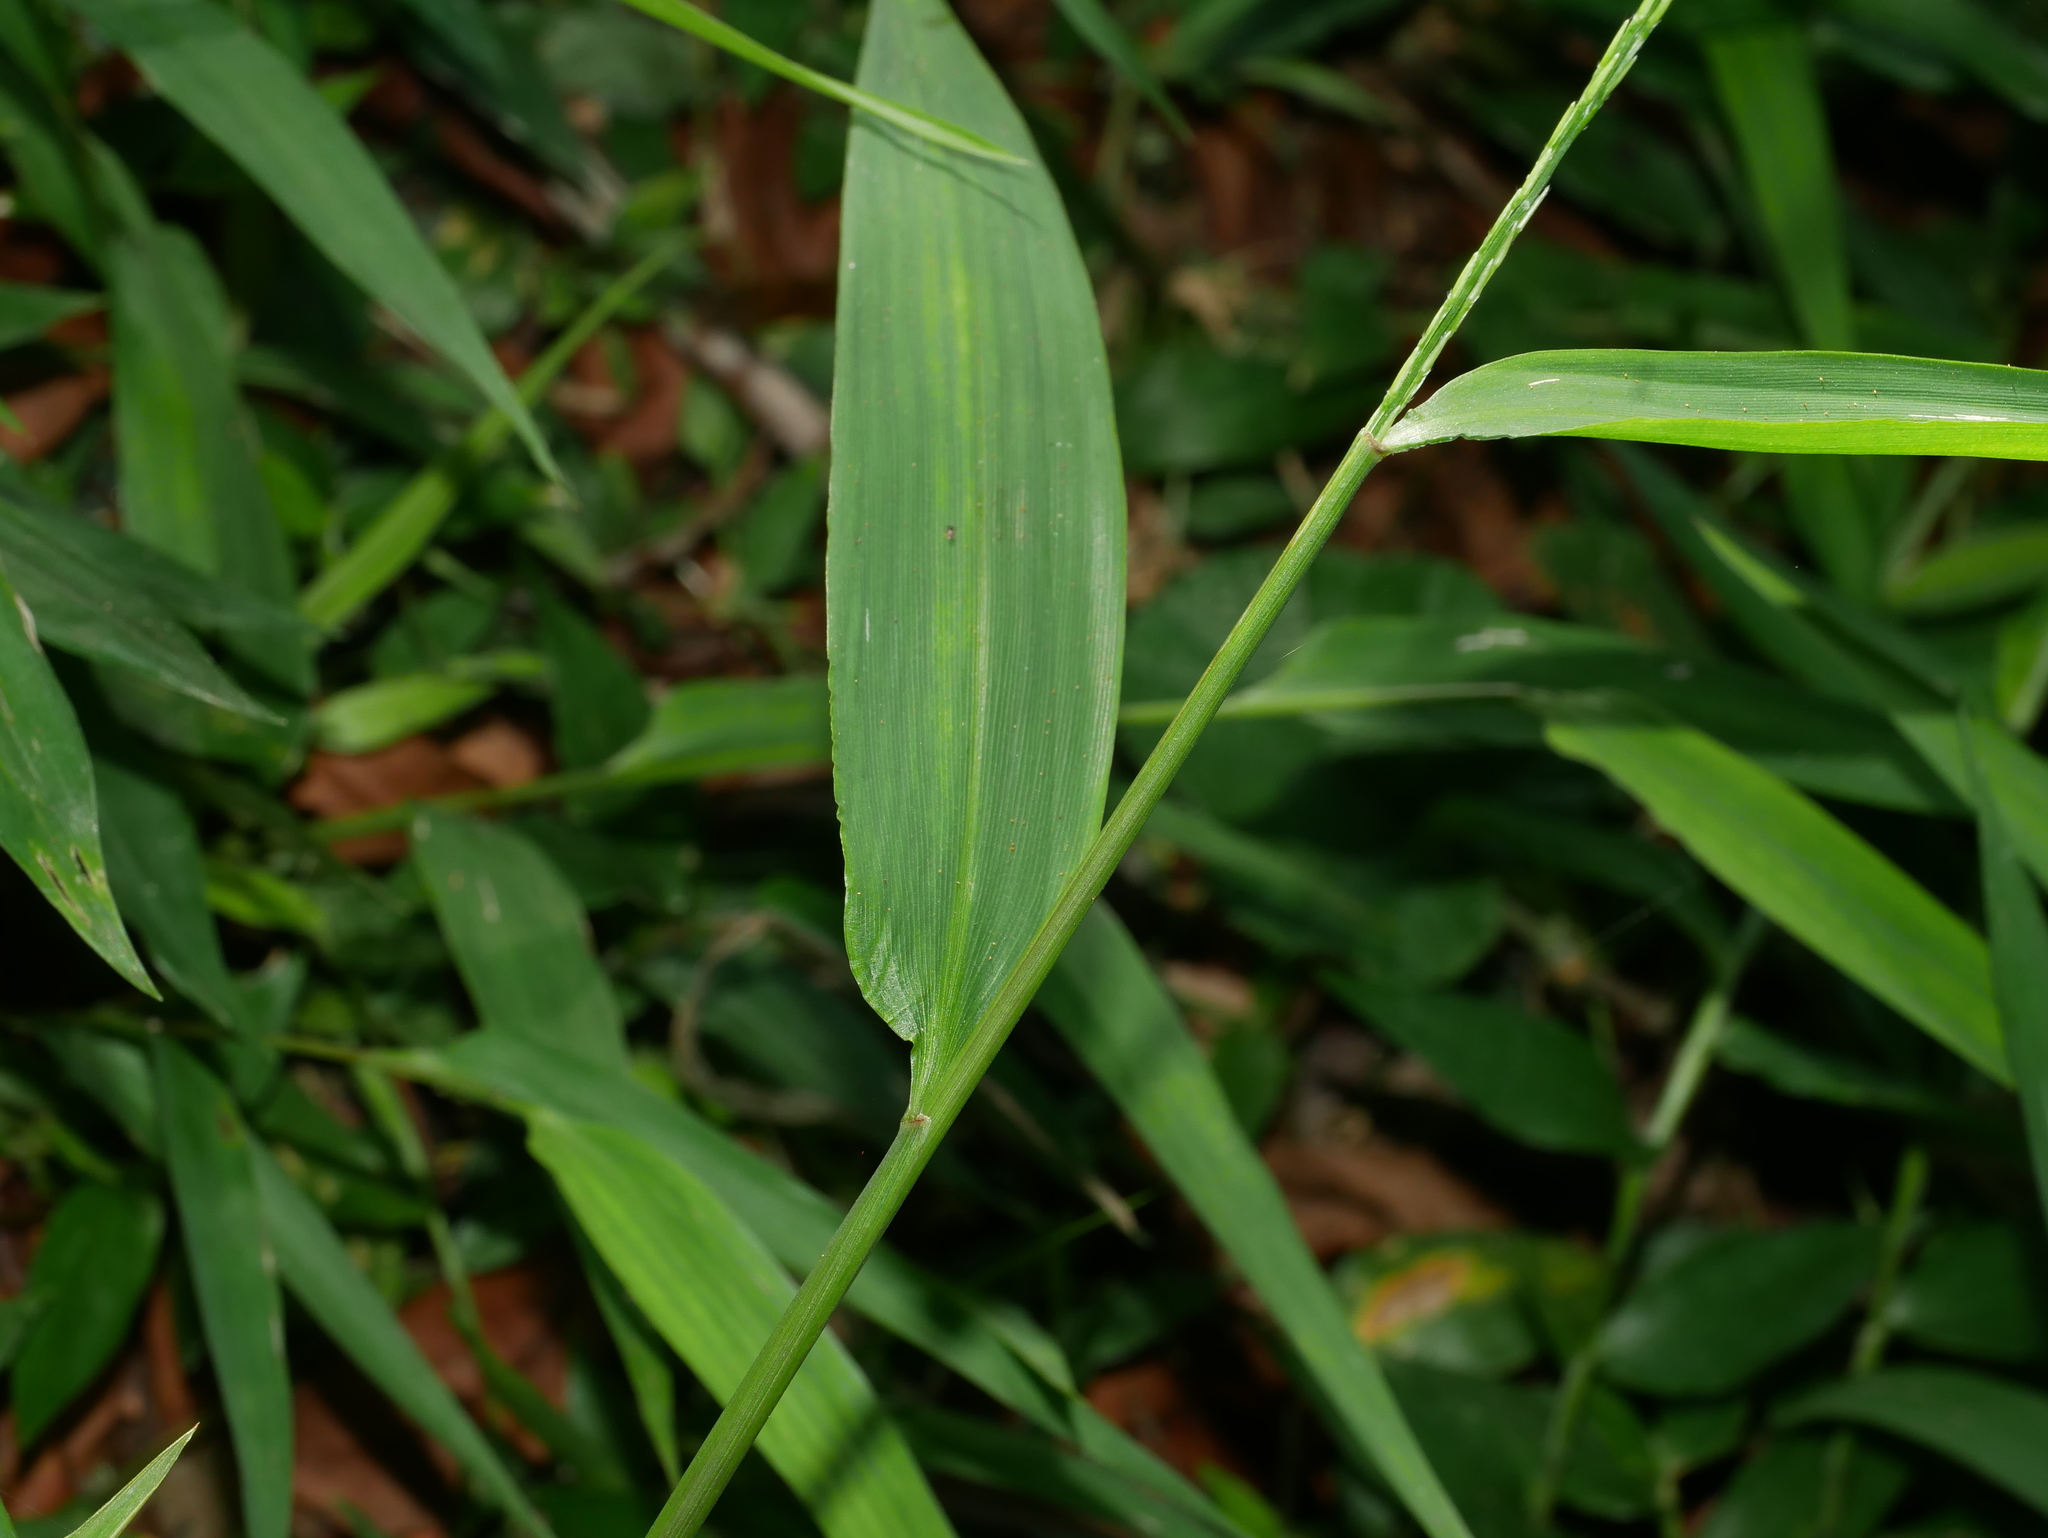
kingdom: Plantae
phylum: Tracheophyta
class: Liliopsida
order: Poales
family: Poaceae
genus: Lophatherum
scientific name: Lophatherum gracile
